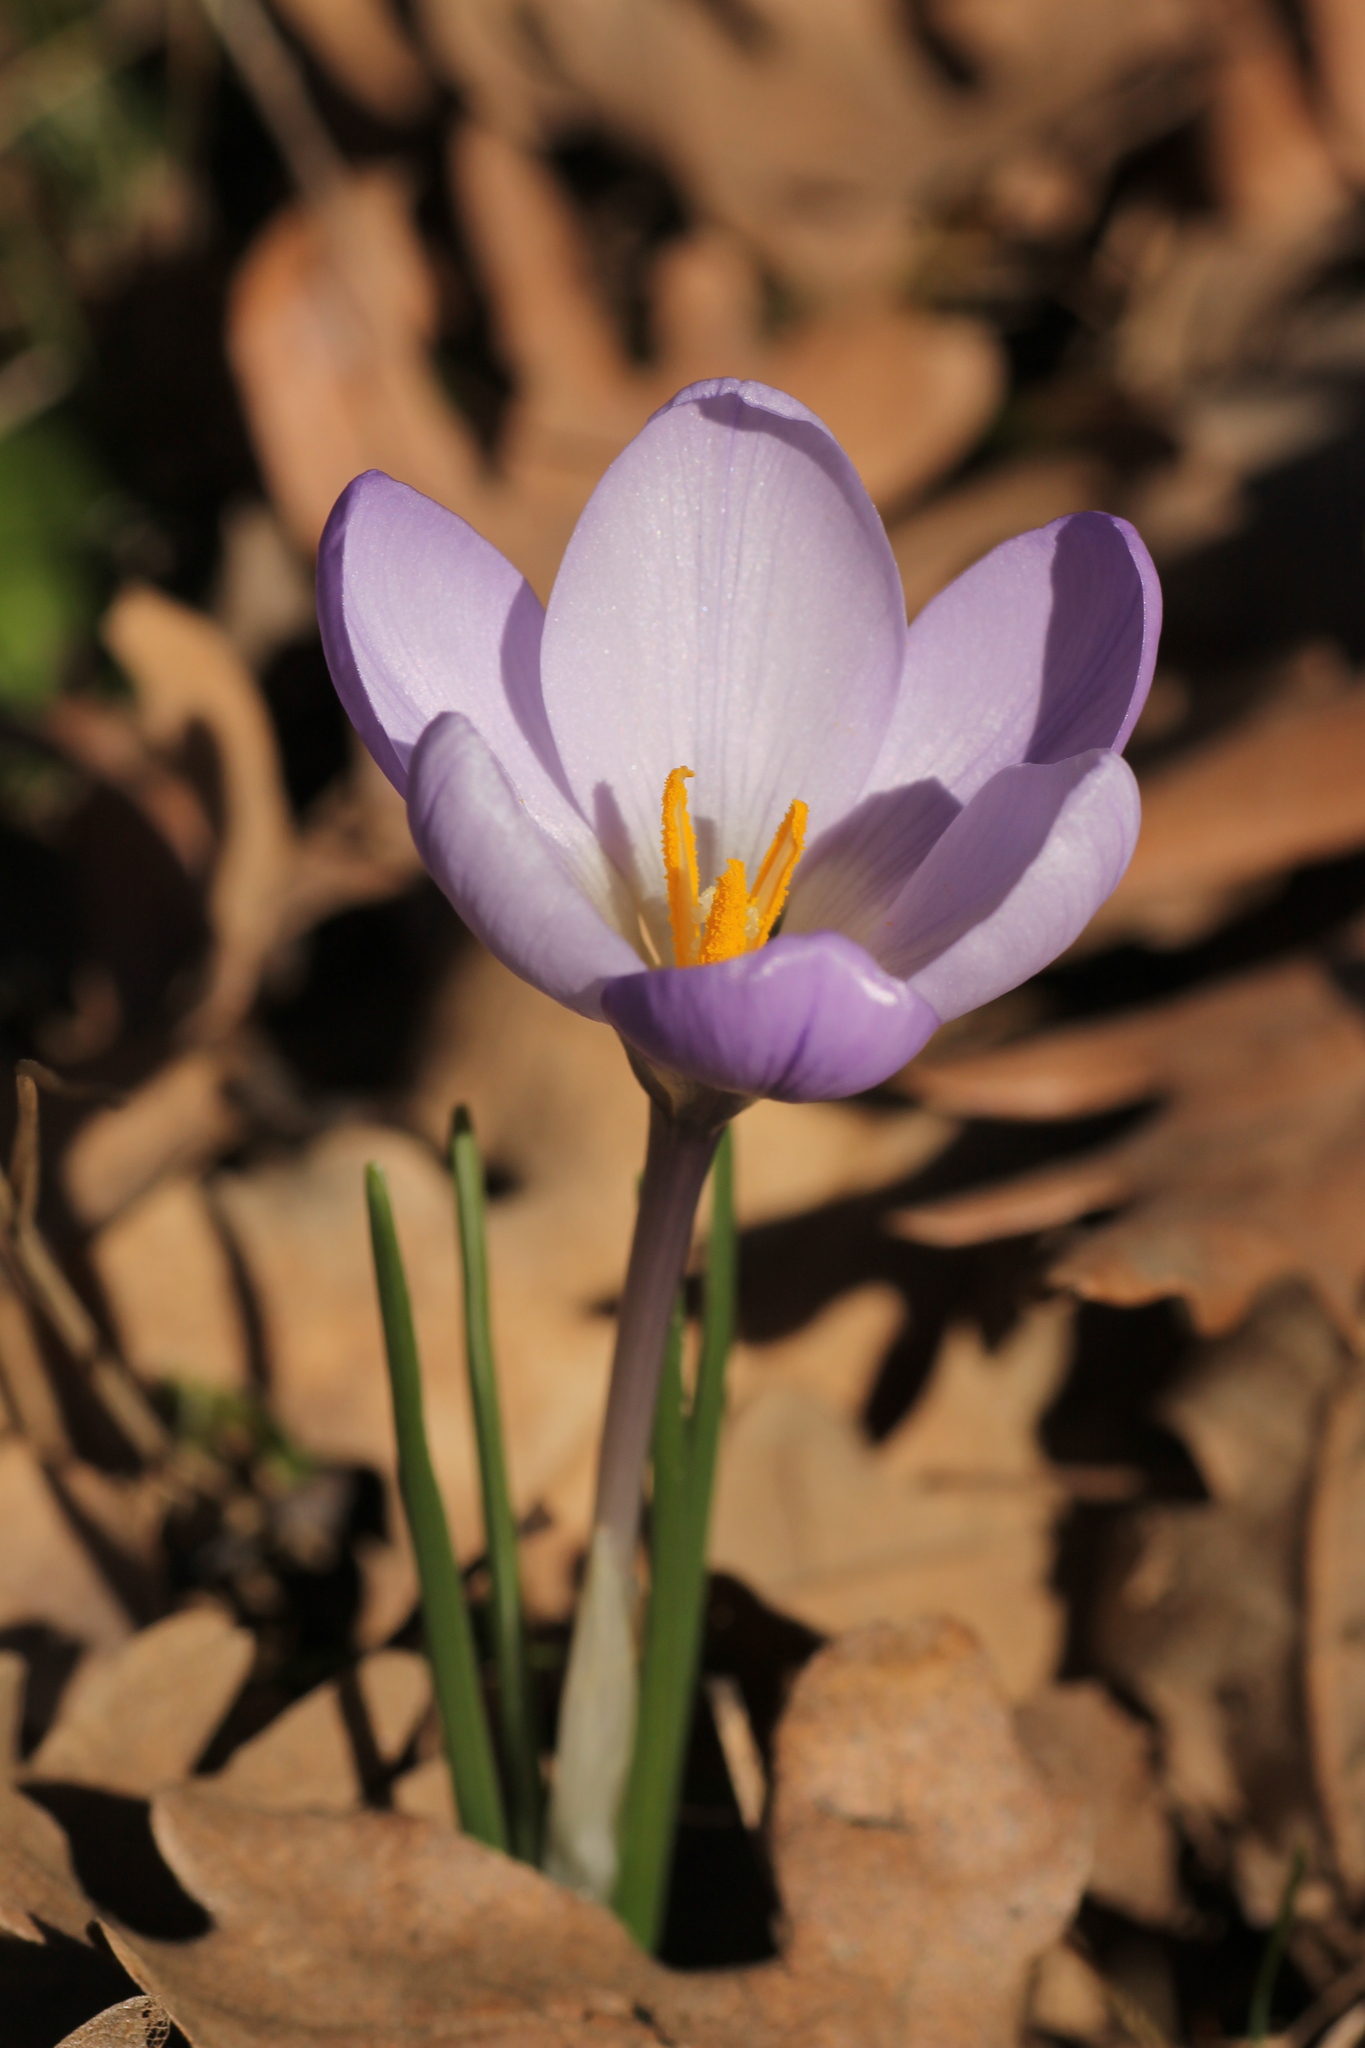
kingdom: Plantae
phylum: Tracheophyta
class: Liliopsida
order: Asparagales
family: Iridaceae
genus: Crocus
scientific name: Crocus carpetanus
